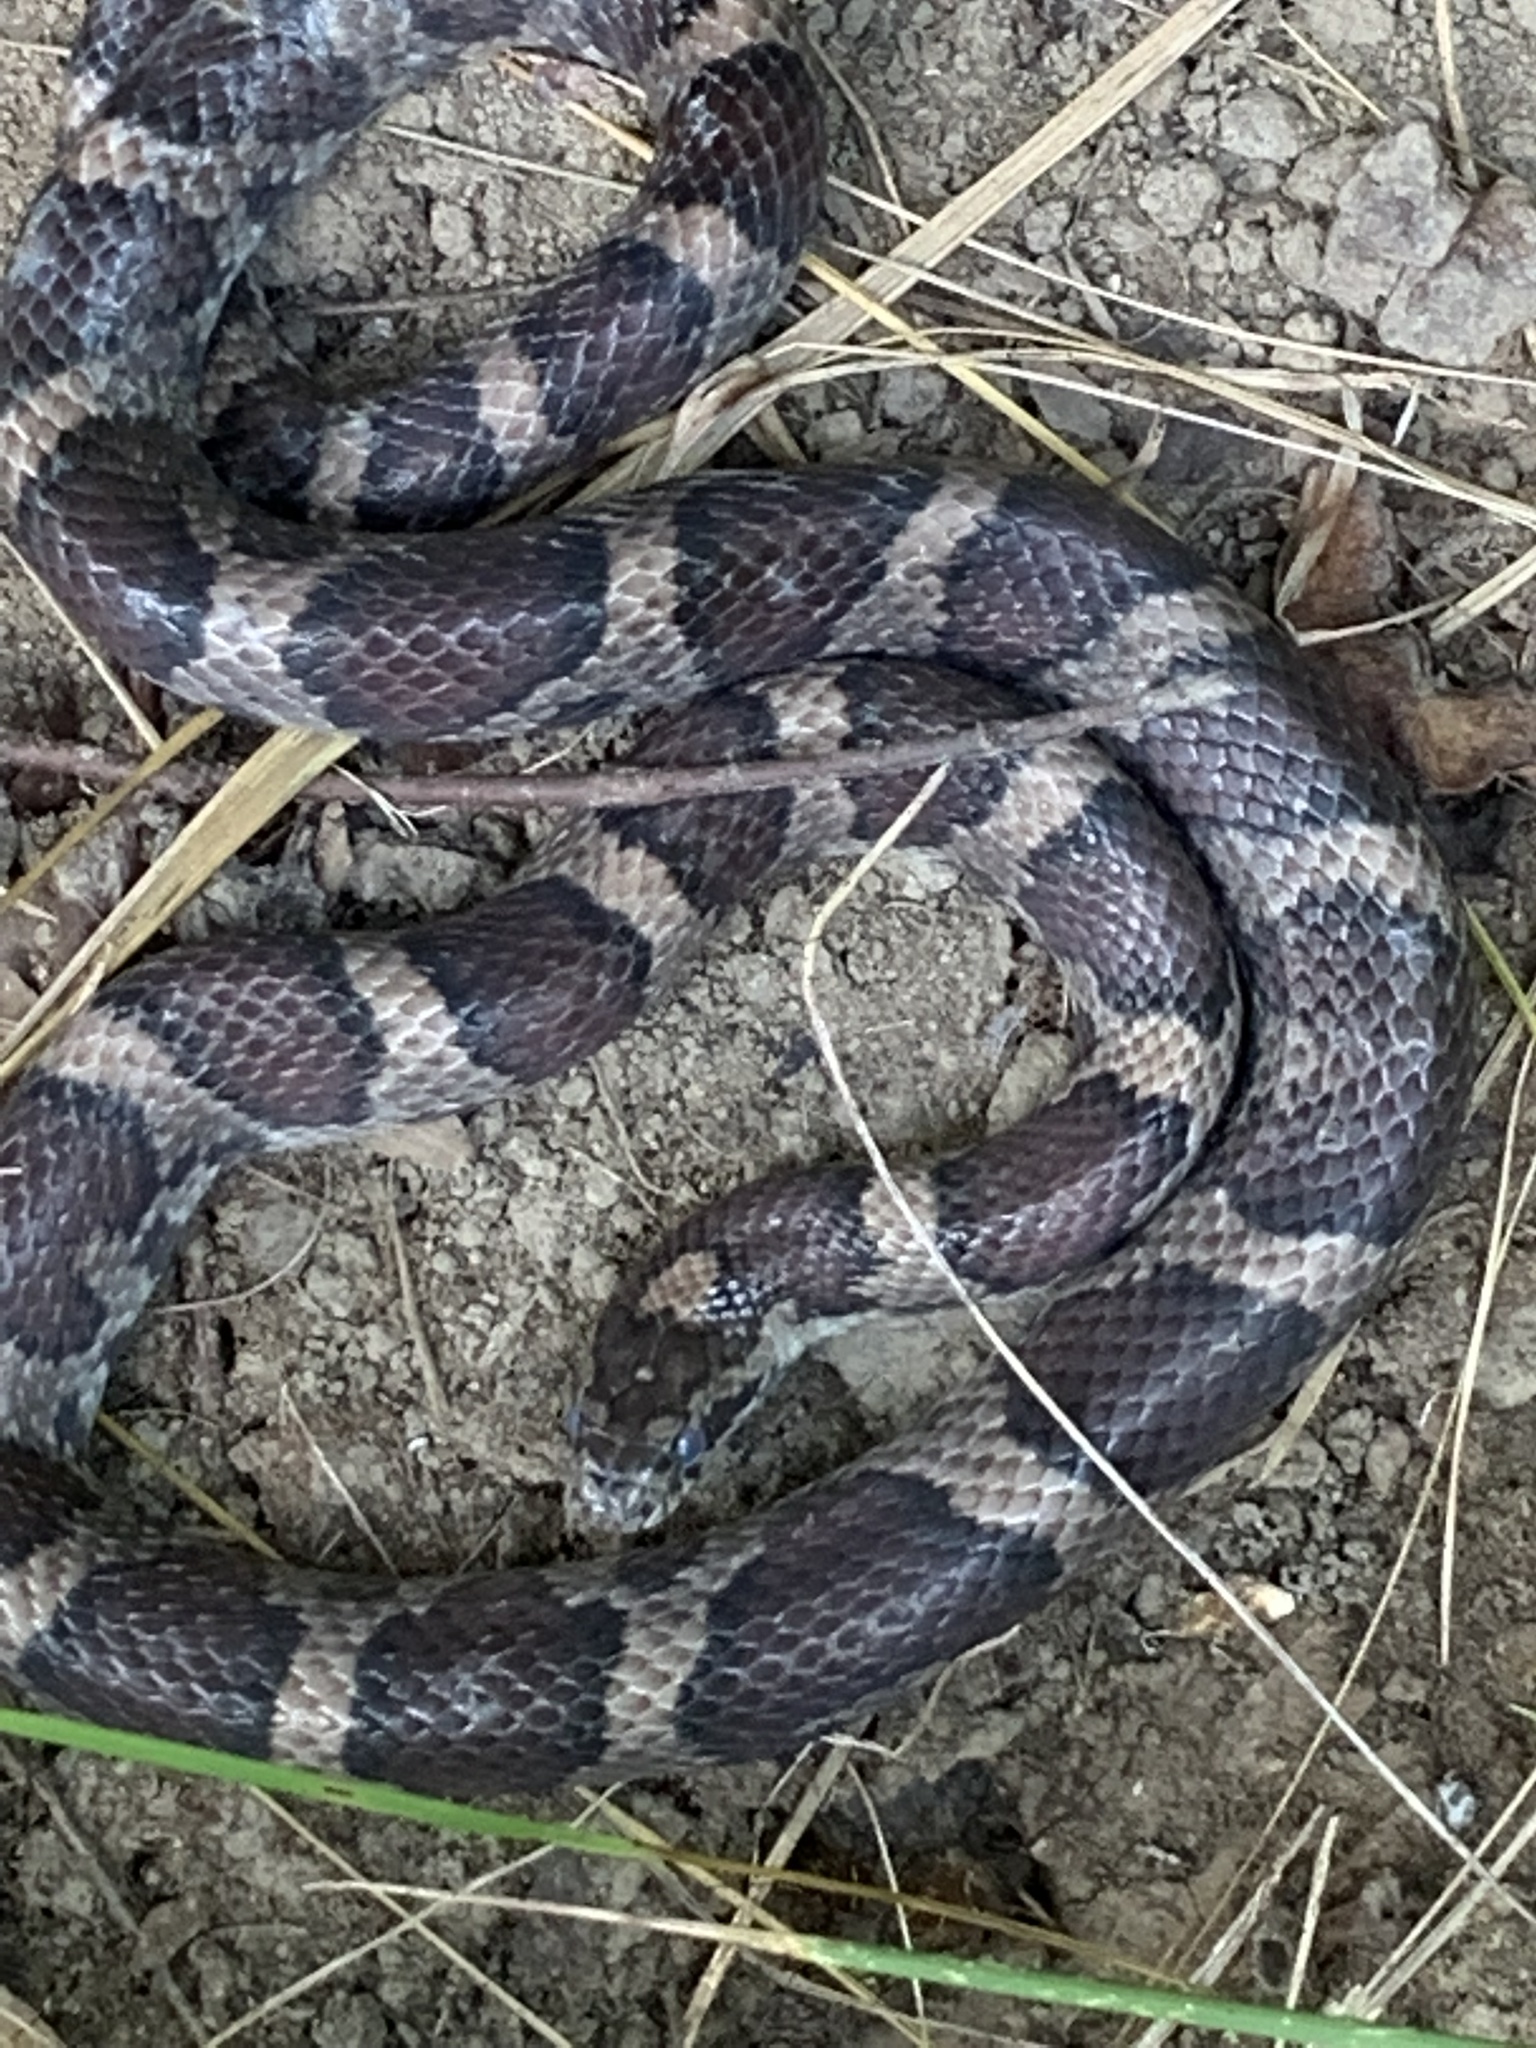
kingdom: Animalia
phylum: Chordata
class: Squamata
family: Colubridae
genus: Lampropeltis
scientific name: Lampropeltis triangulum
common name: Eastern milksnake
